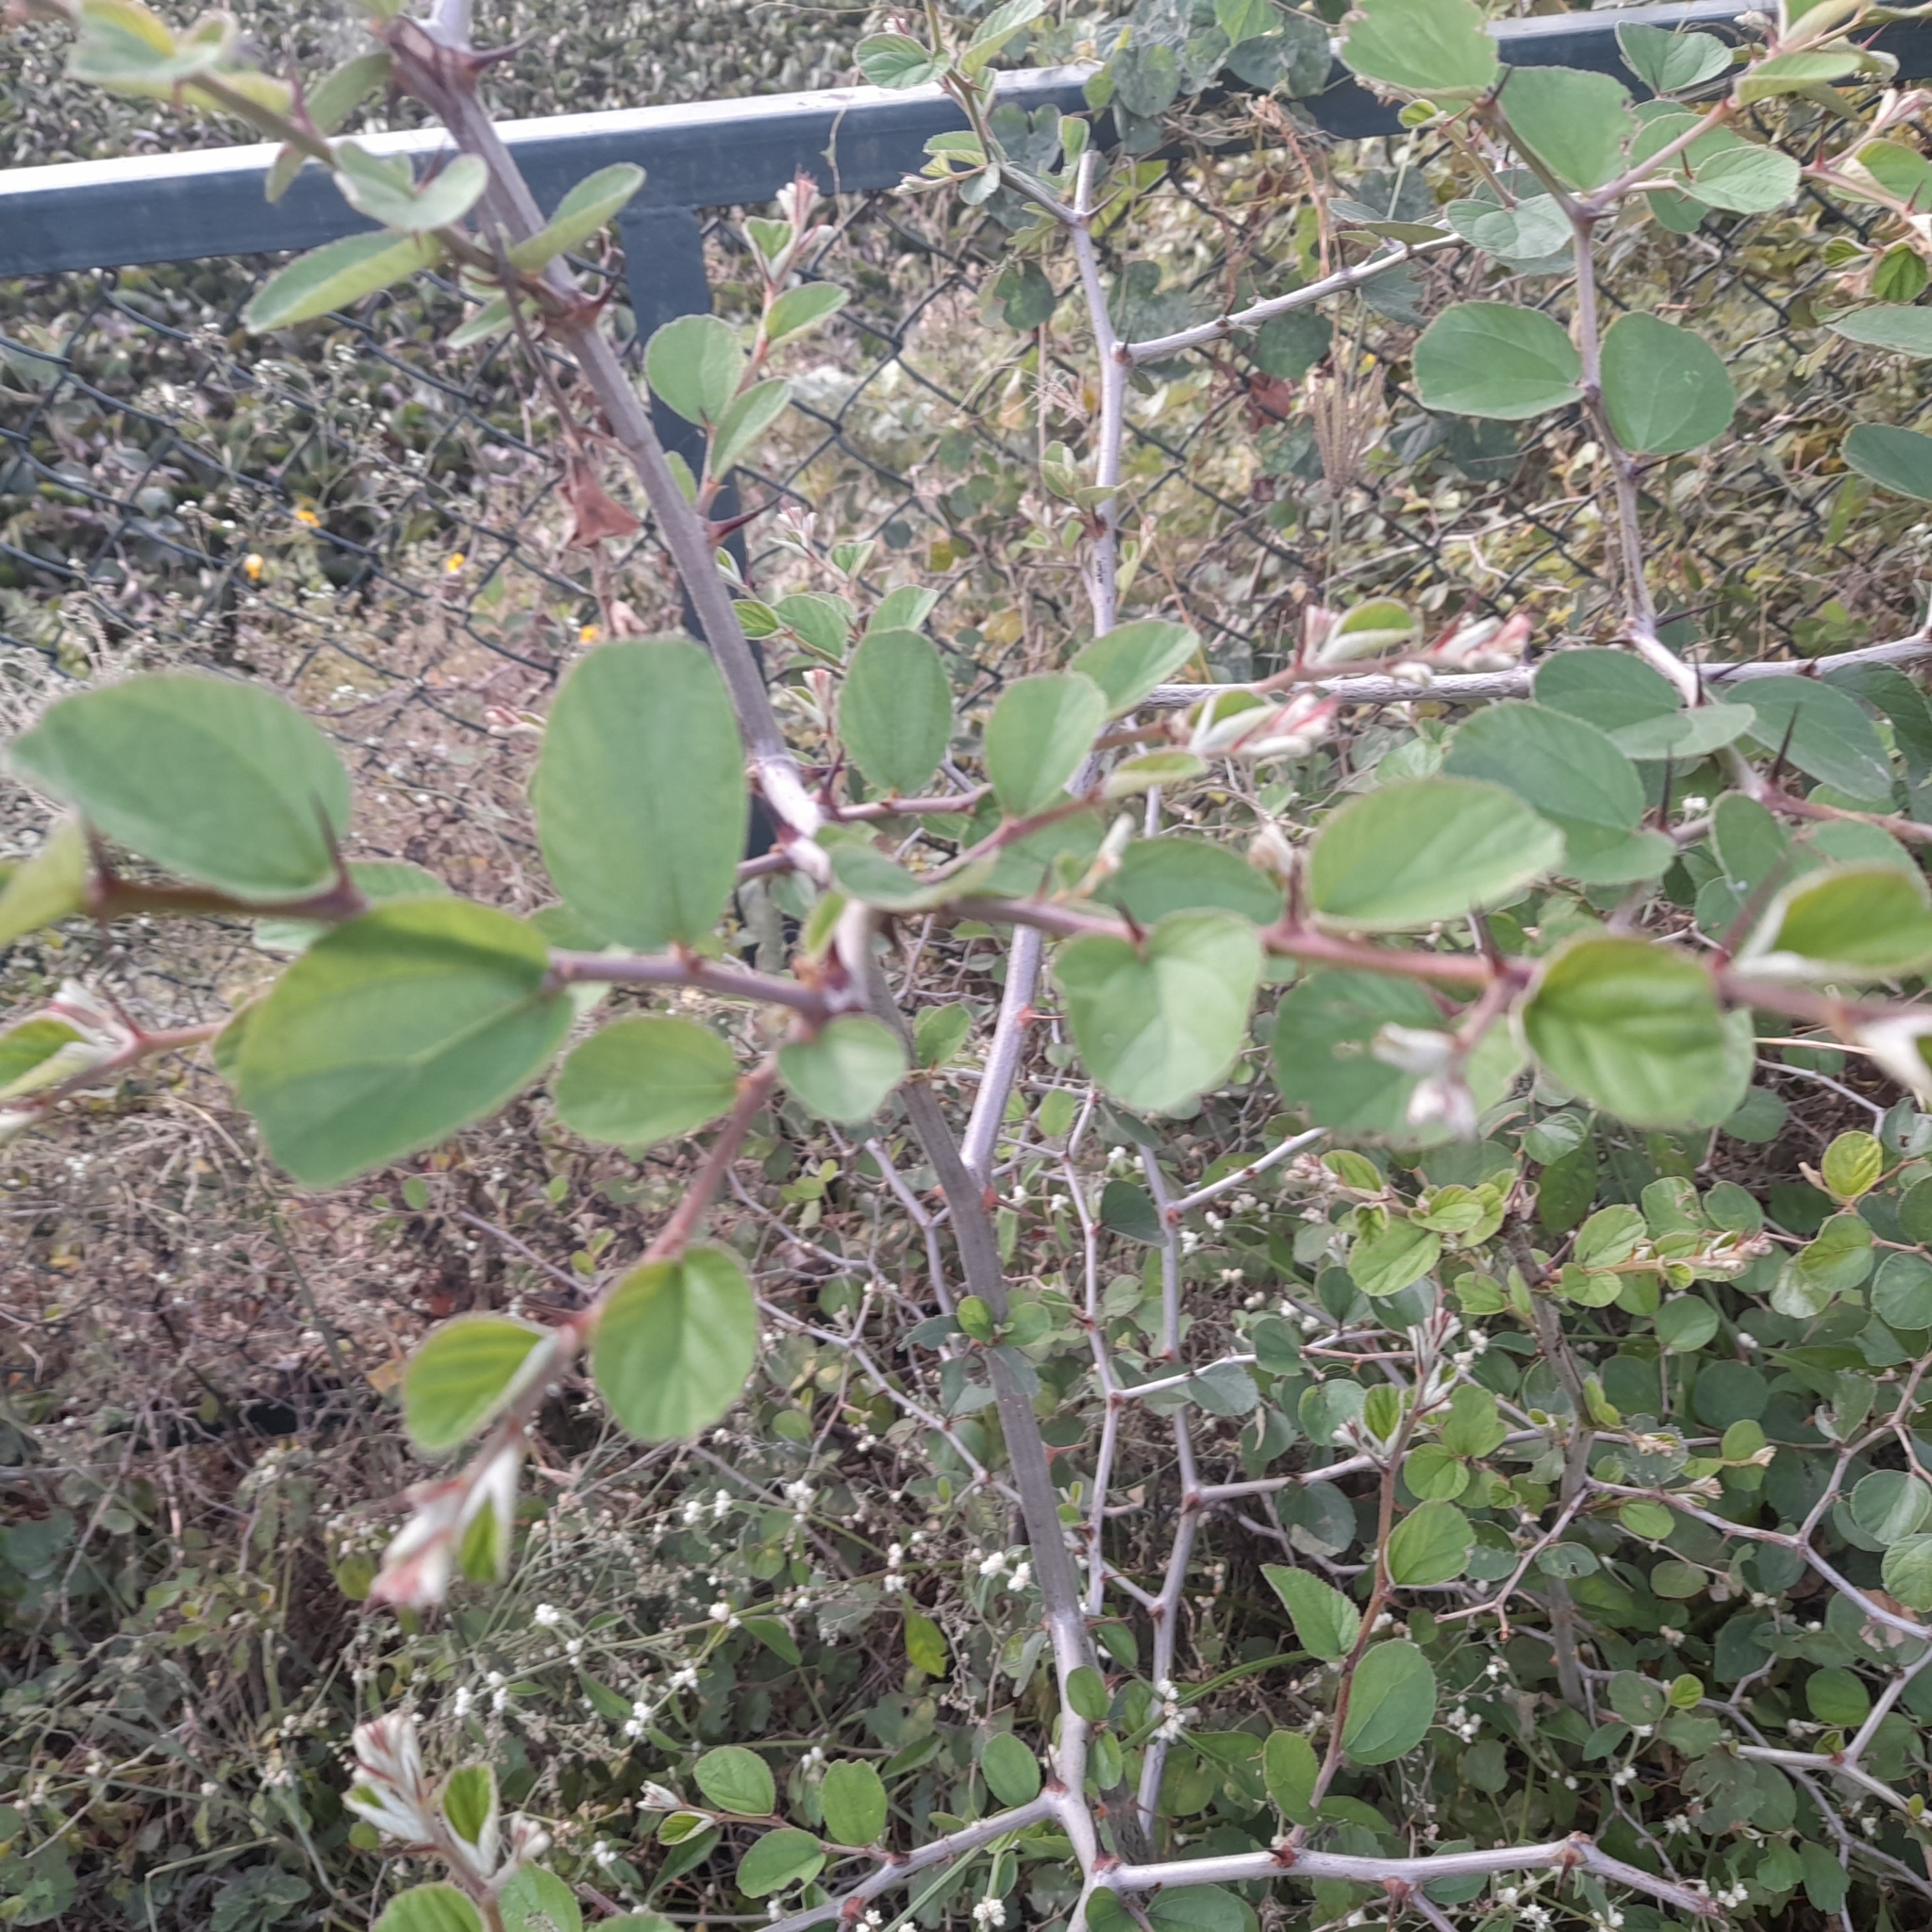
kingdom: Plantae
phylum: Tracheophyta
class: Magnoliopsida
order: Rosales
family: Rhamnaceae
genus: Ziziphus
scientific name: Ziziphus jujuba
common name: Jujube red date
